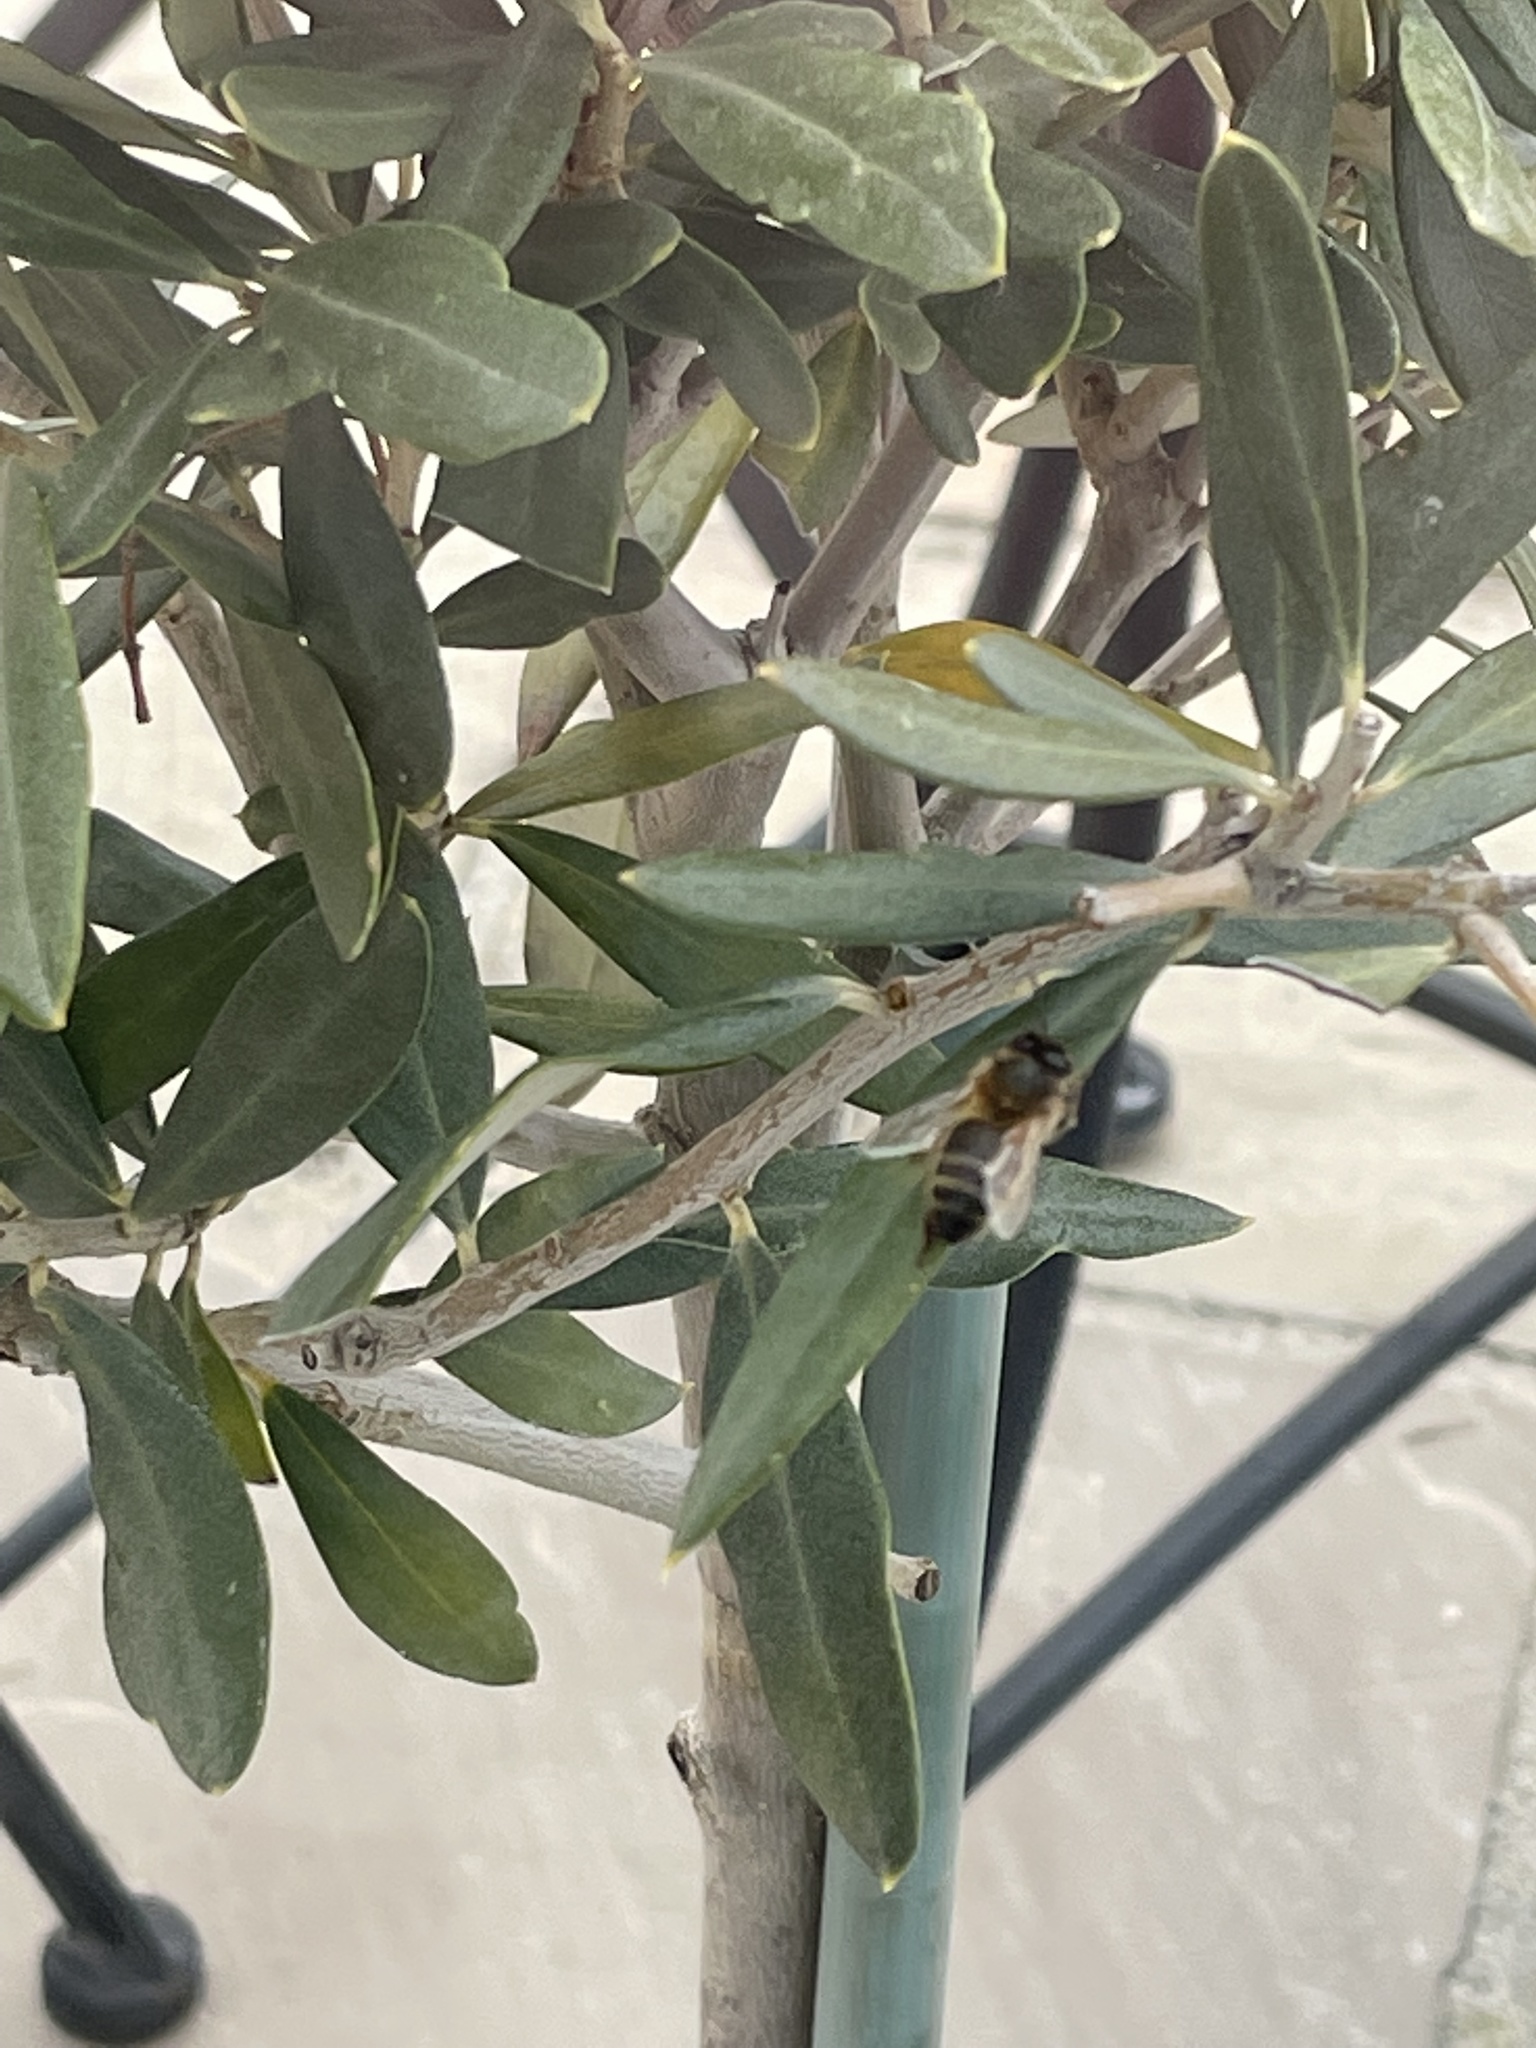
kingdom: Animalia
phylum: Arthropoda
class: Insecta
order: Hymenoptera
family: Apidae
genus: Apis
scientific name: Apis mellifera
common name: Honey bee
